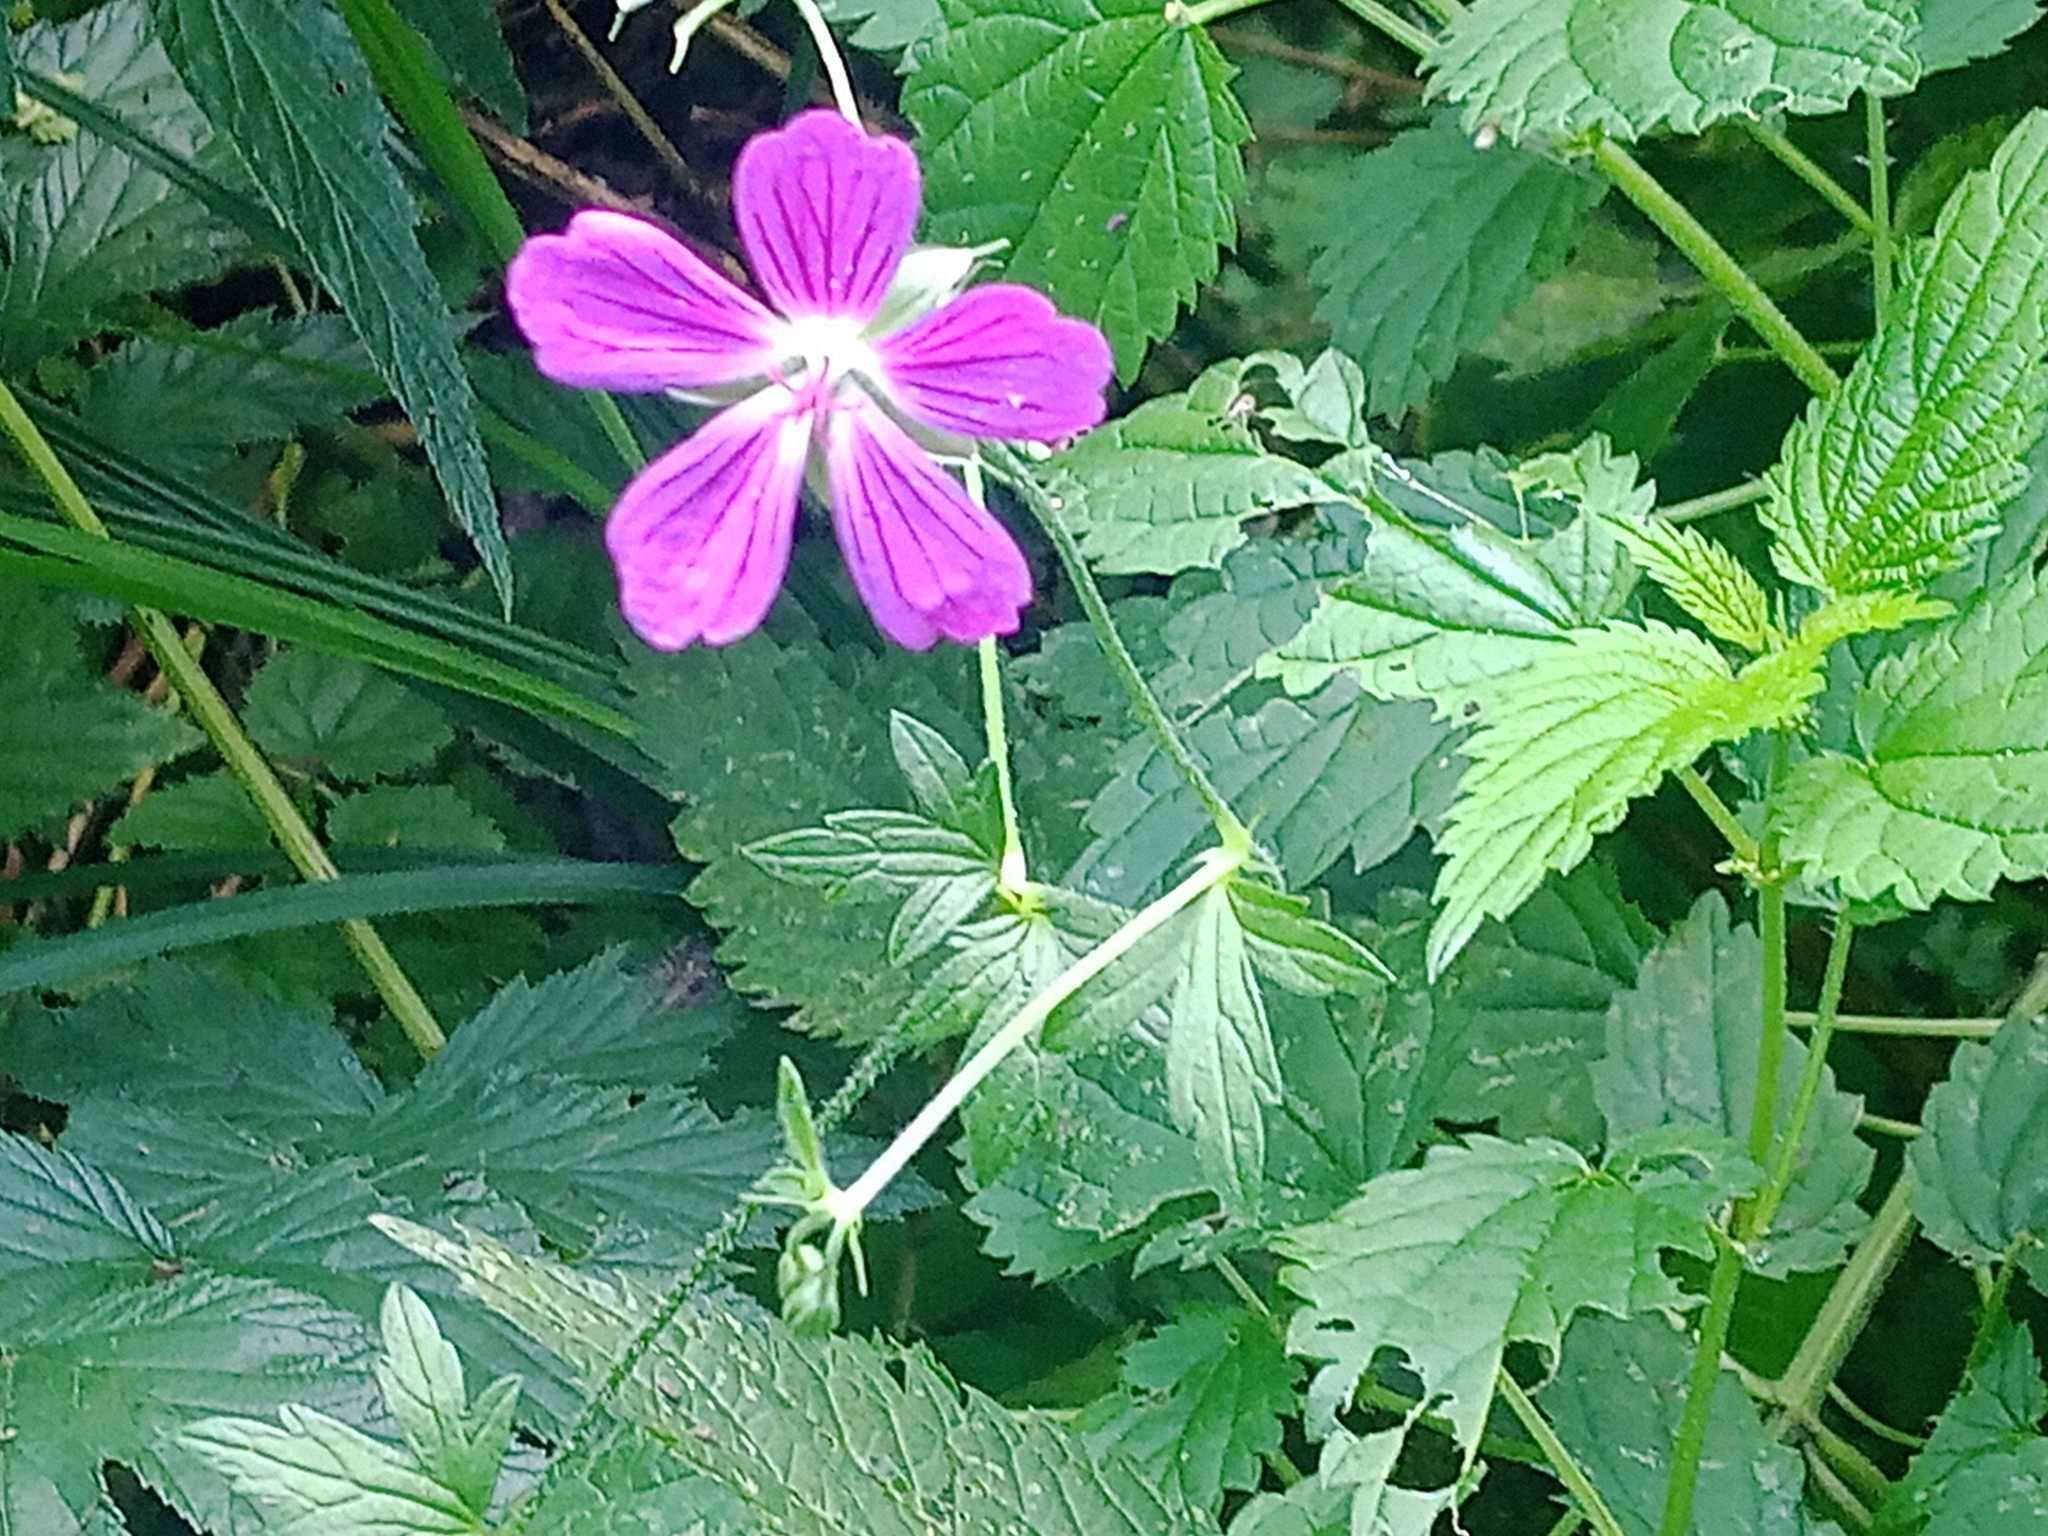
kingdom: Plantae
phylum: Tracheophyta
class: Magnoliopsida
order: Geraniales
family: Geraniaceae
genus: Geranium
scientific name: Geranium palustre
